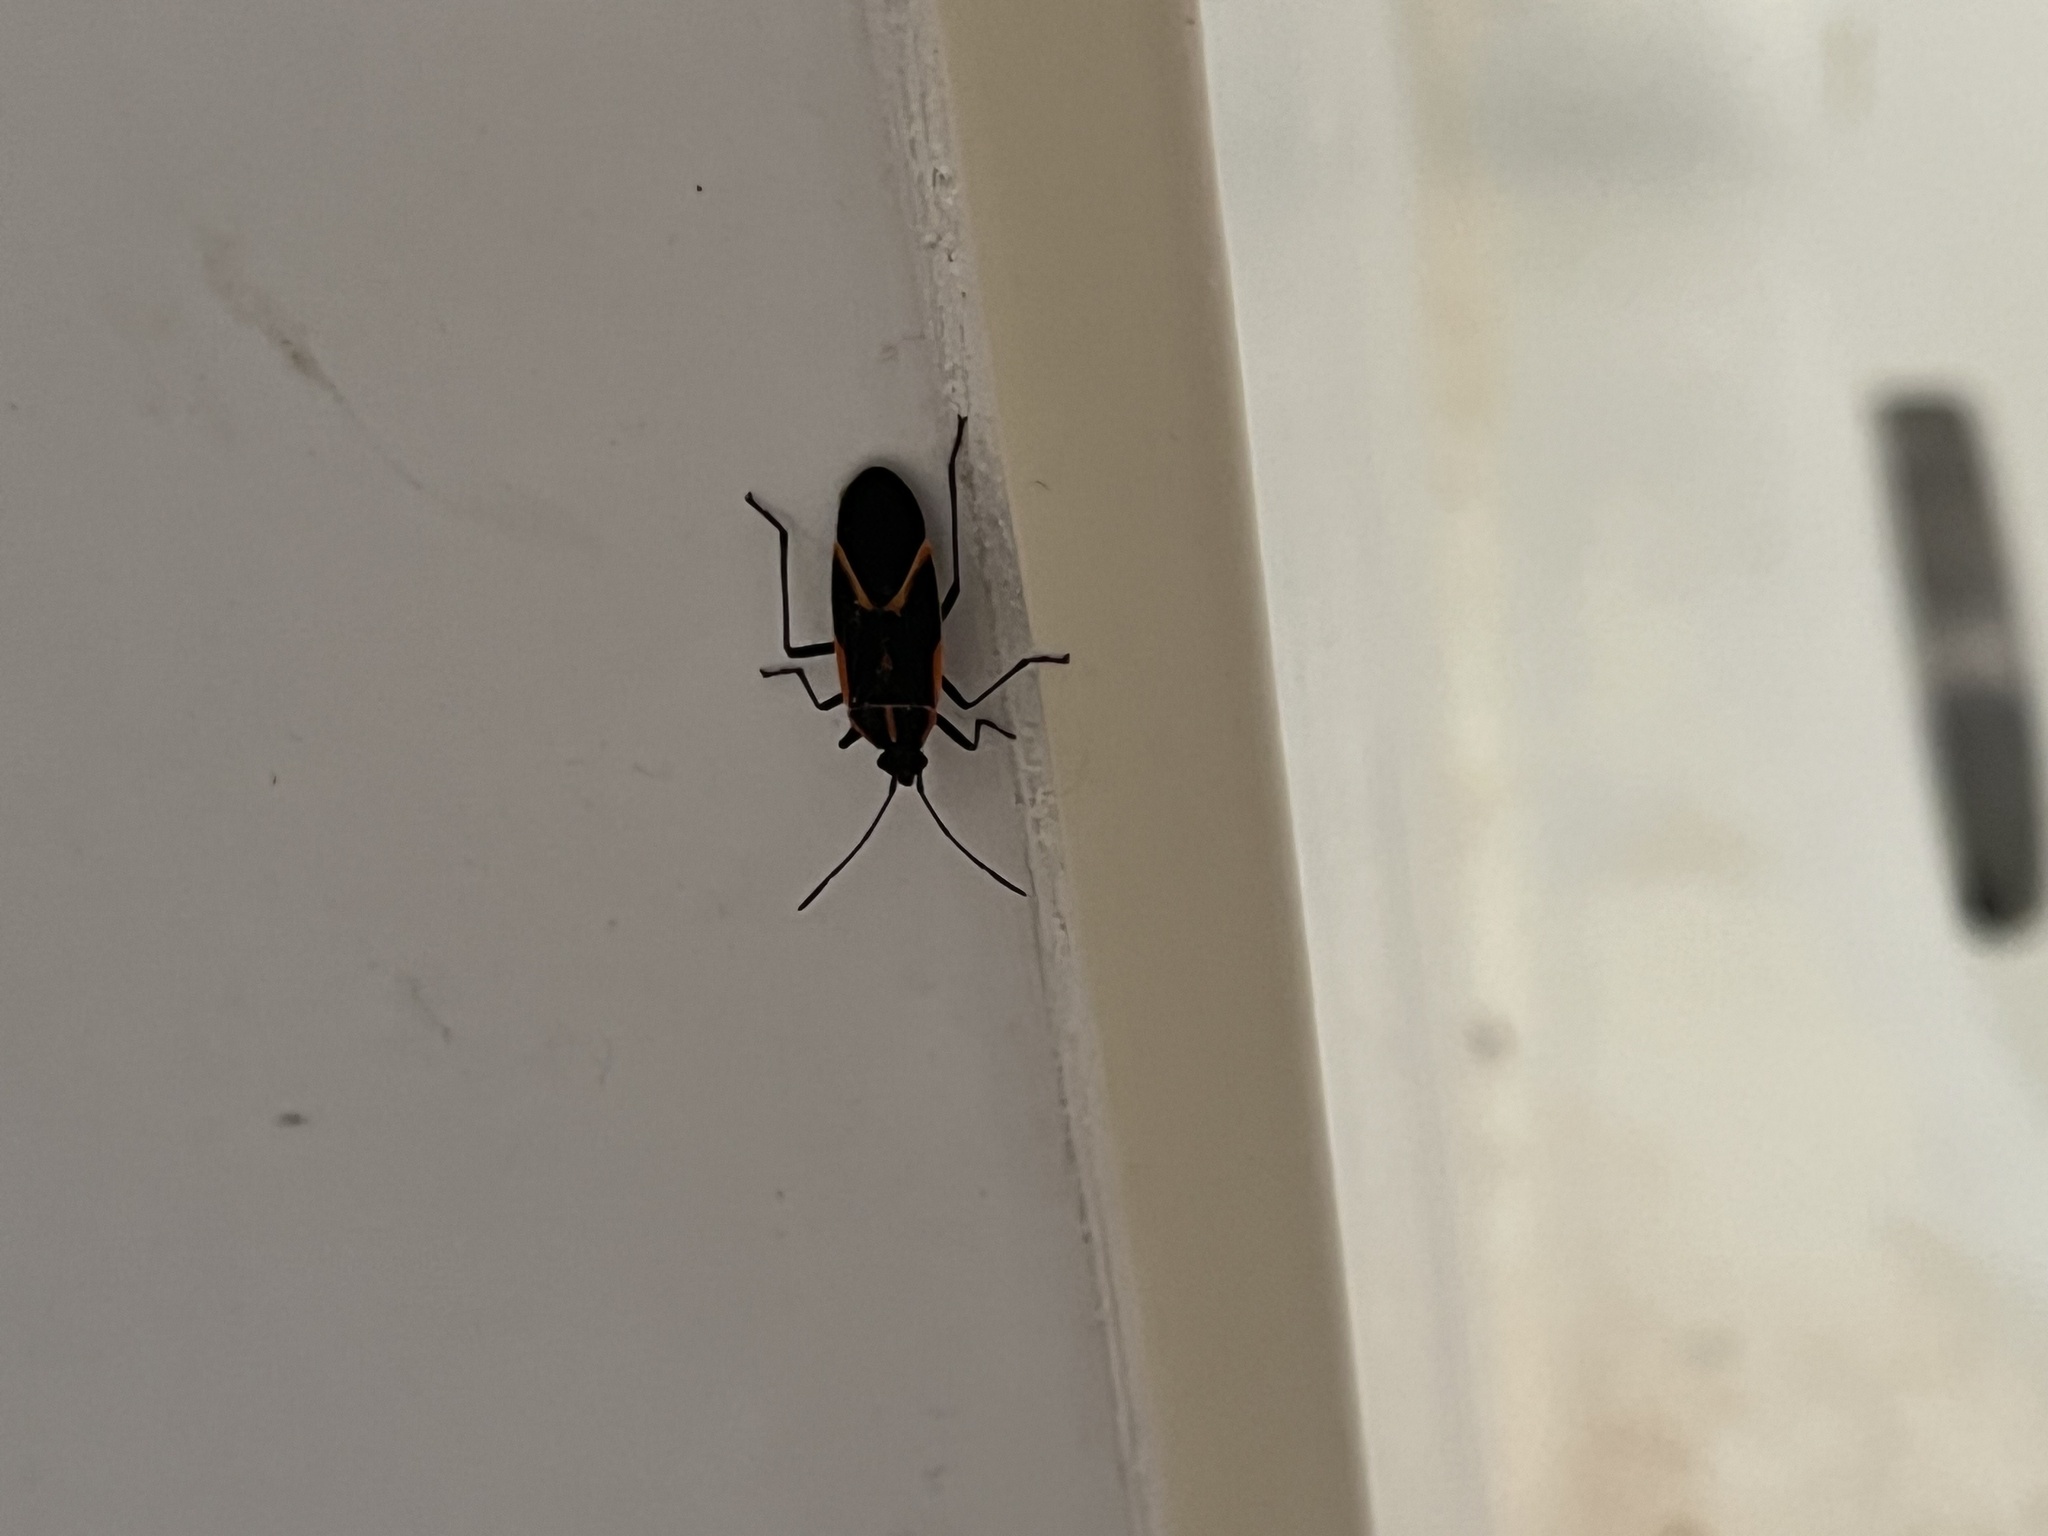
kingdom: Animalia
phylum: Arthropoda
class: Insecta
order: Hemiptera
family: Rhopalidae
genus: Boisea
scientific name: Boisea trivittata
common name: Boxelder bug
